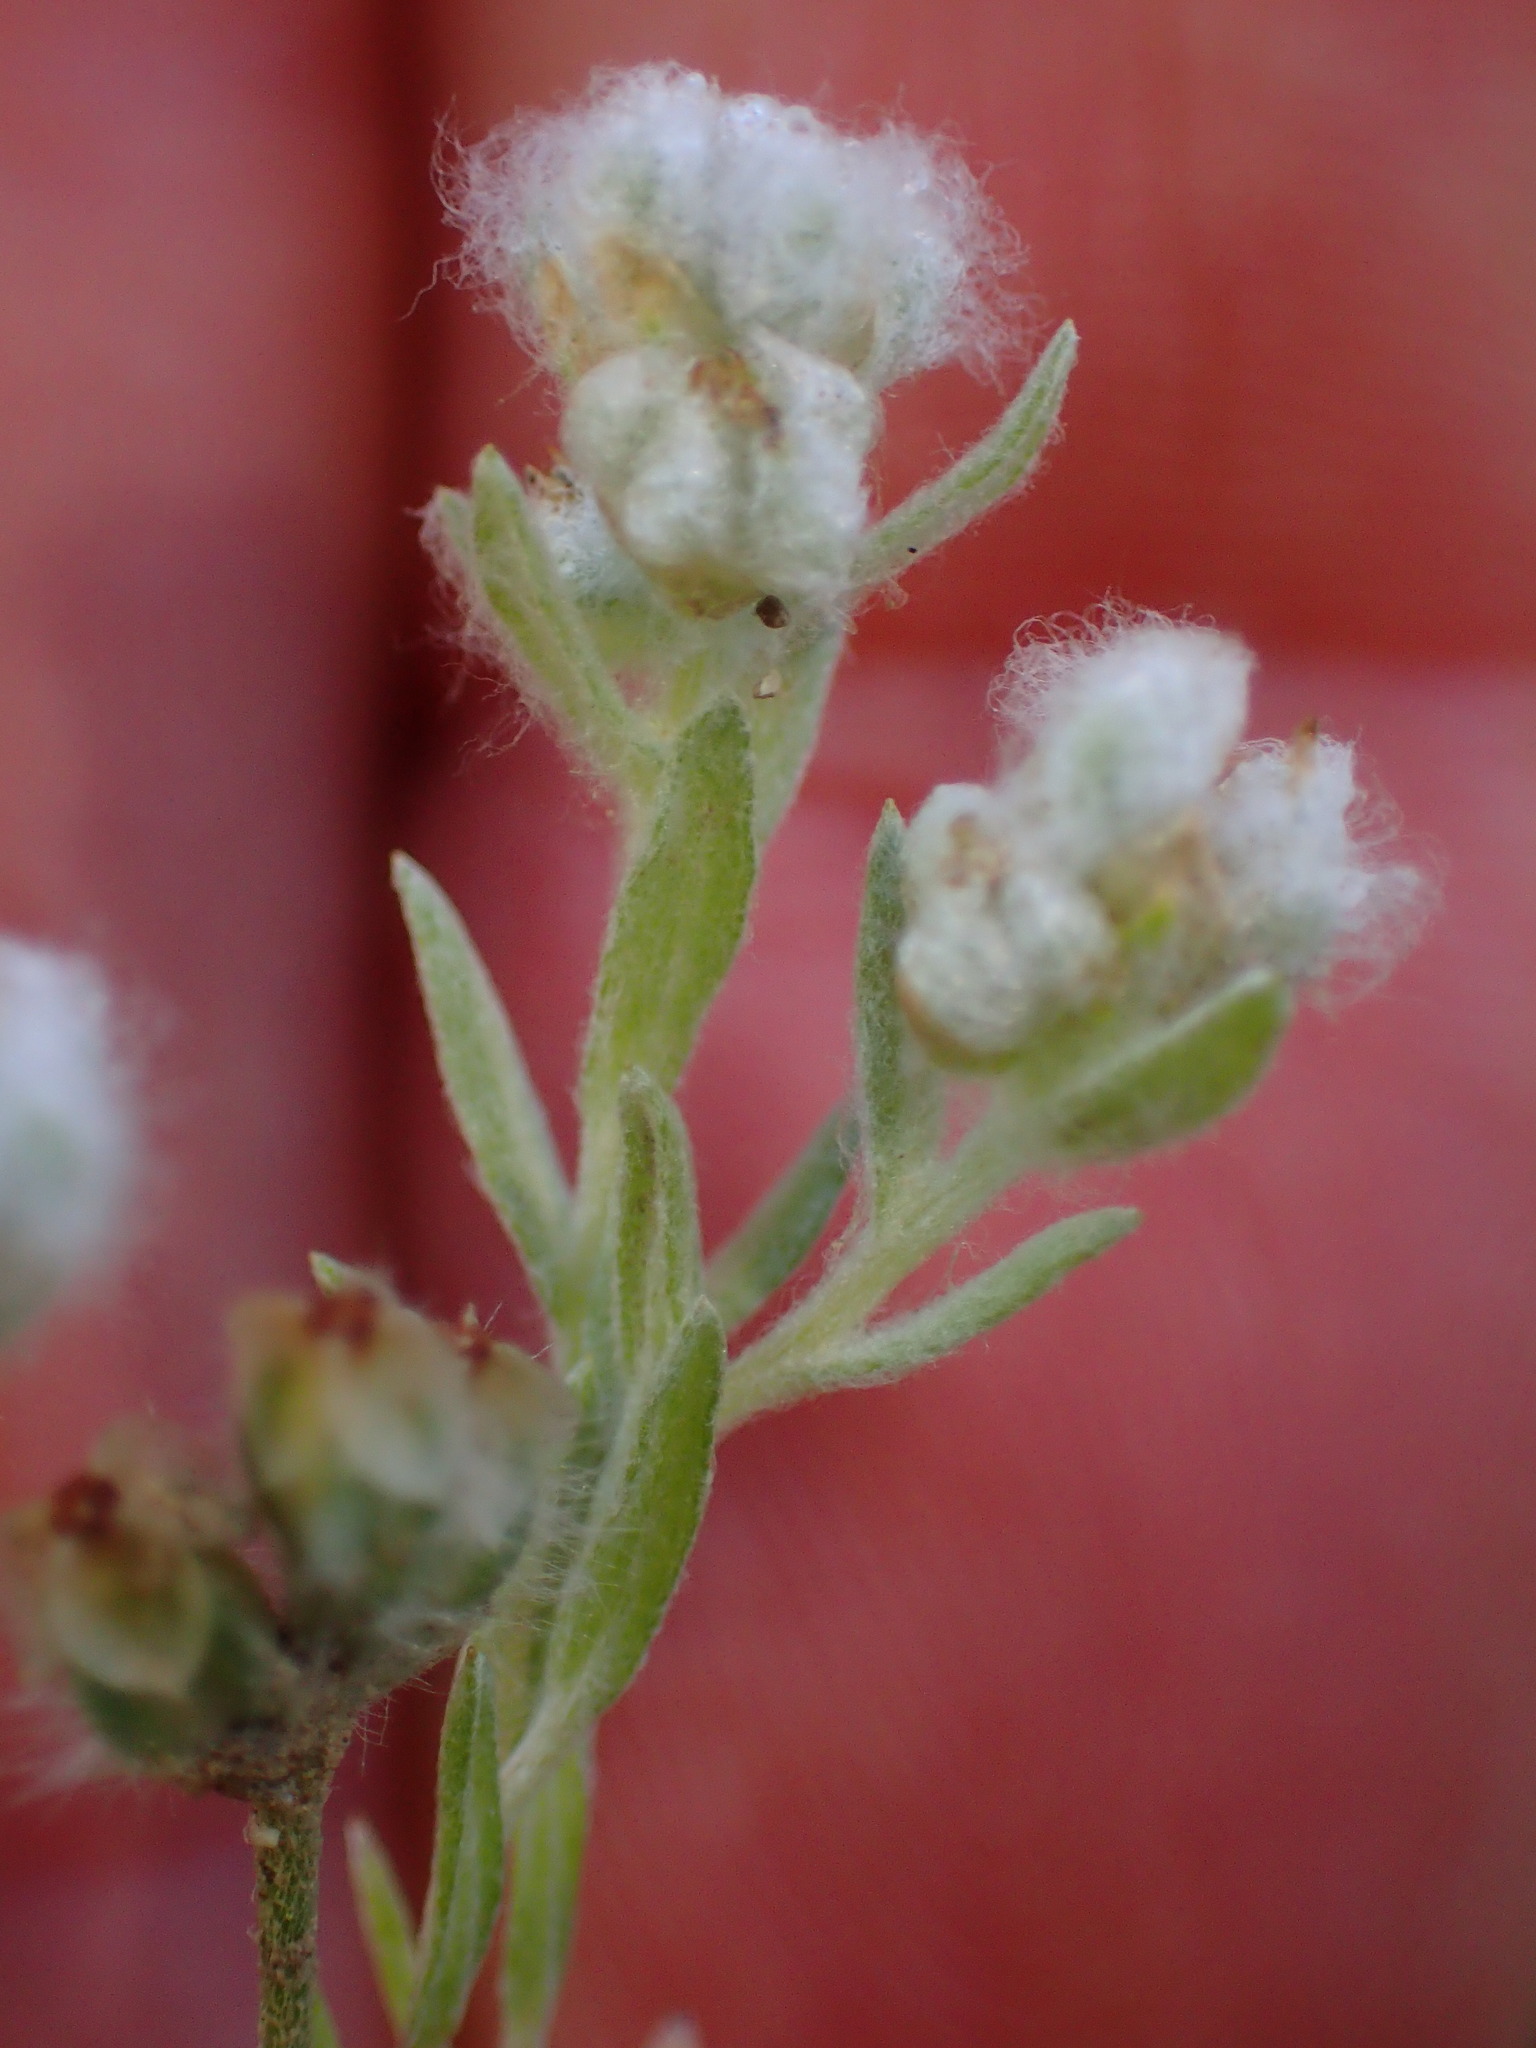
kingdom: Plantae
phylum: Tracheophyta
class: Magnoliopsida
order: Asterales
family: Asteraceae
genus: Bombycilaena
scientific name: Bombycilaena californica
